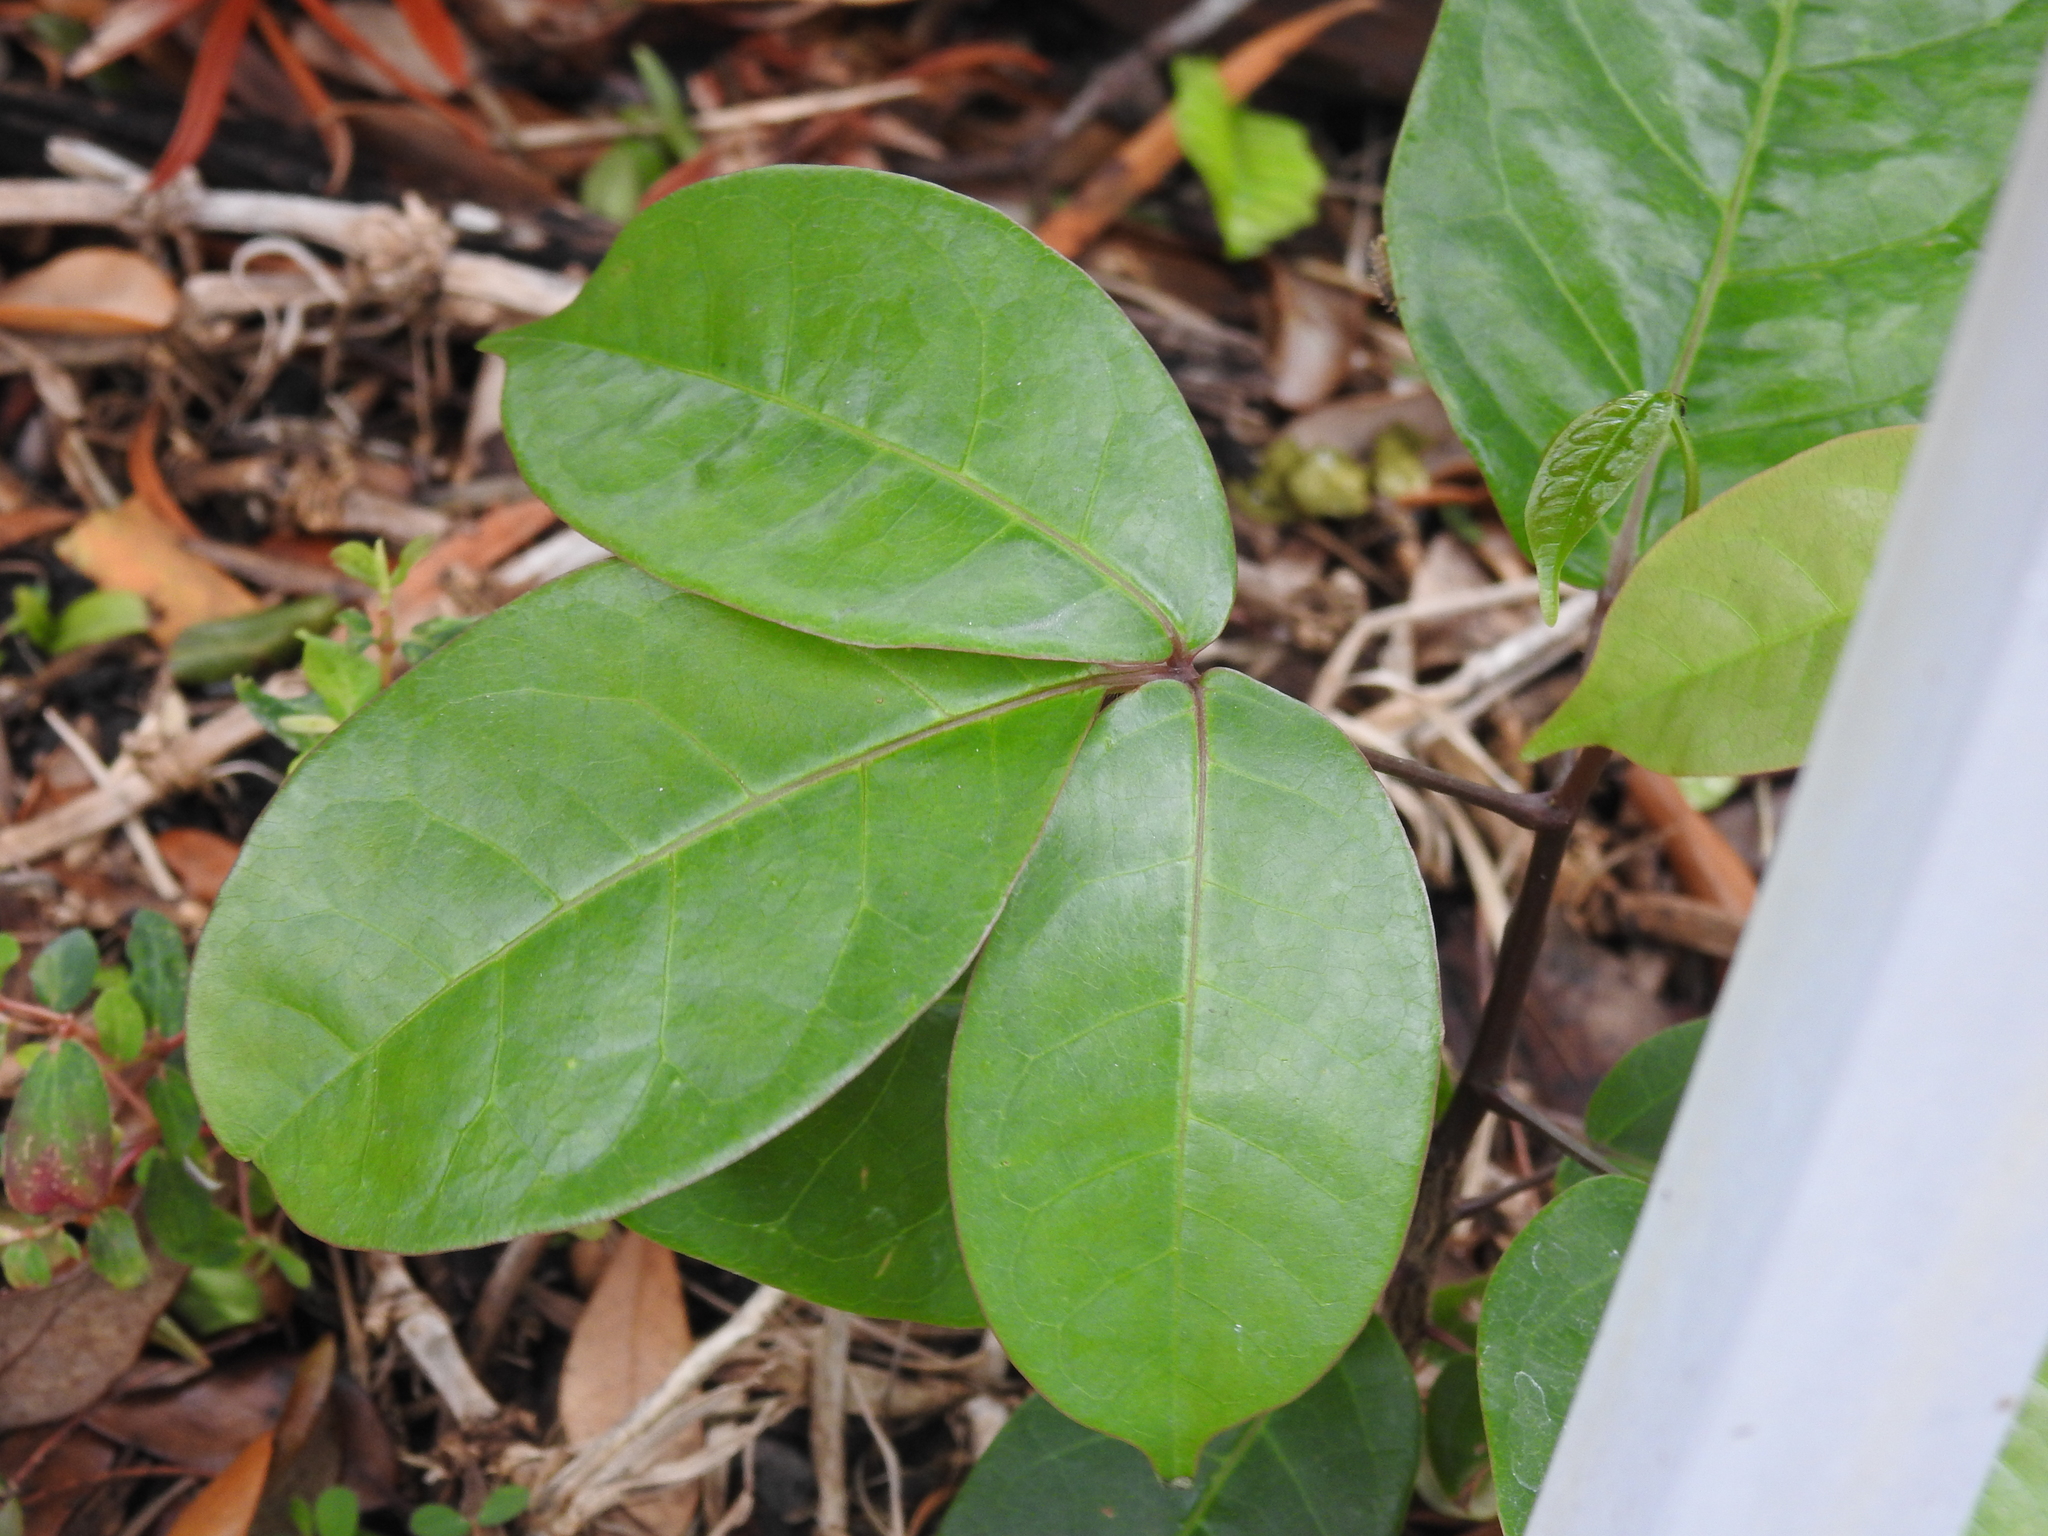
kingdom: Plantae
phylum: Tracheophyta
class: Magnoliopsida
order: Sapindales
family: Burseraceae
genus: Bursera
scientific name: Bursera simaruba
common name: Turpentine tree
